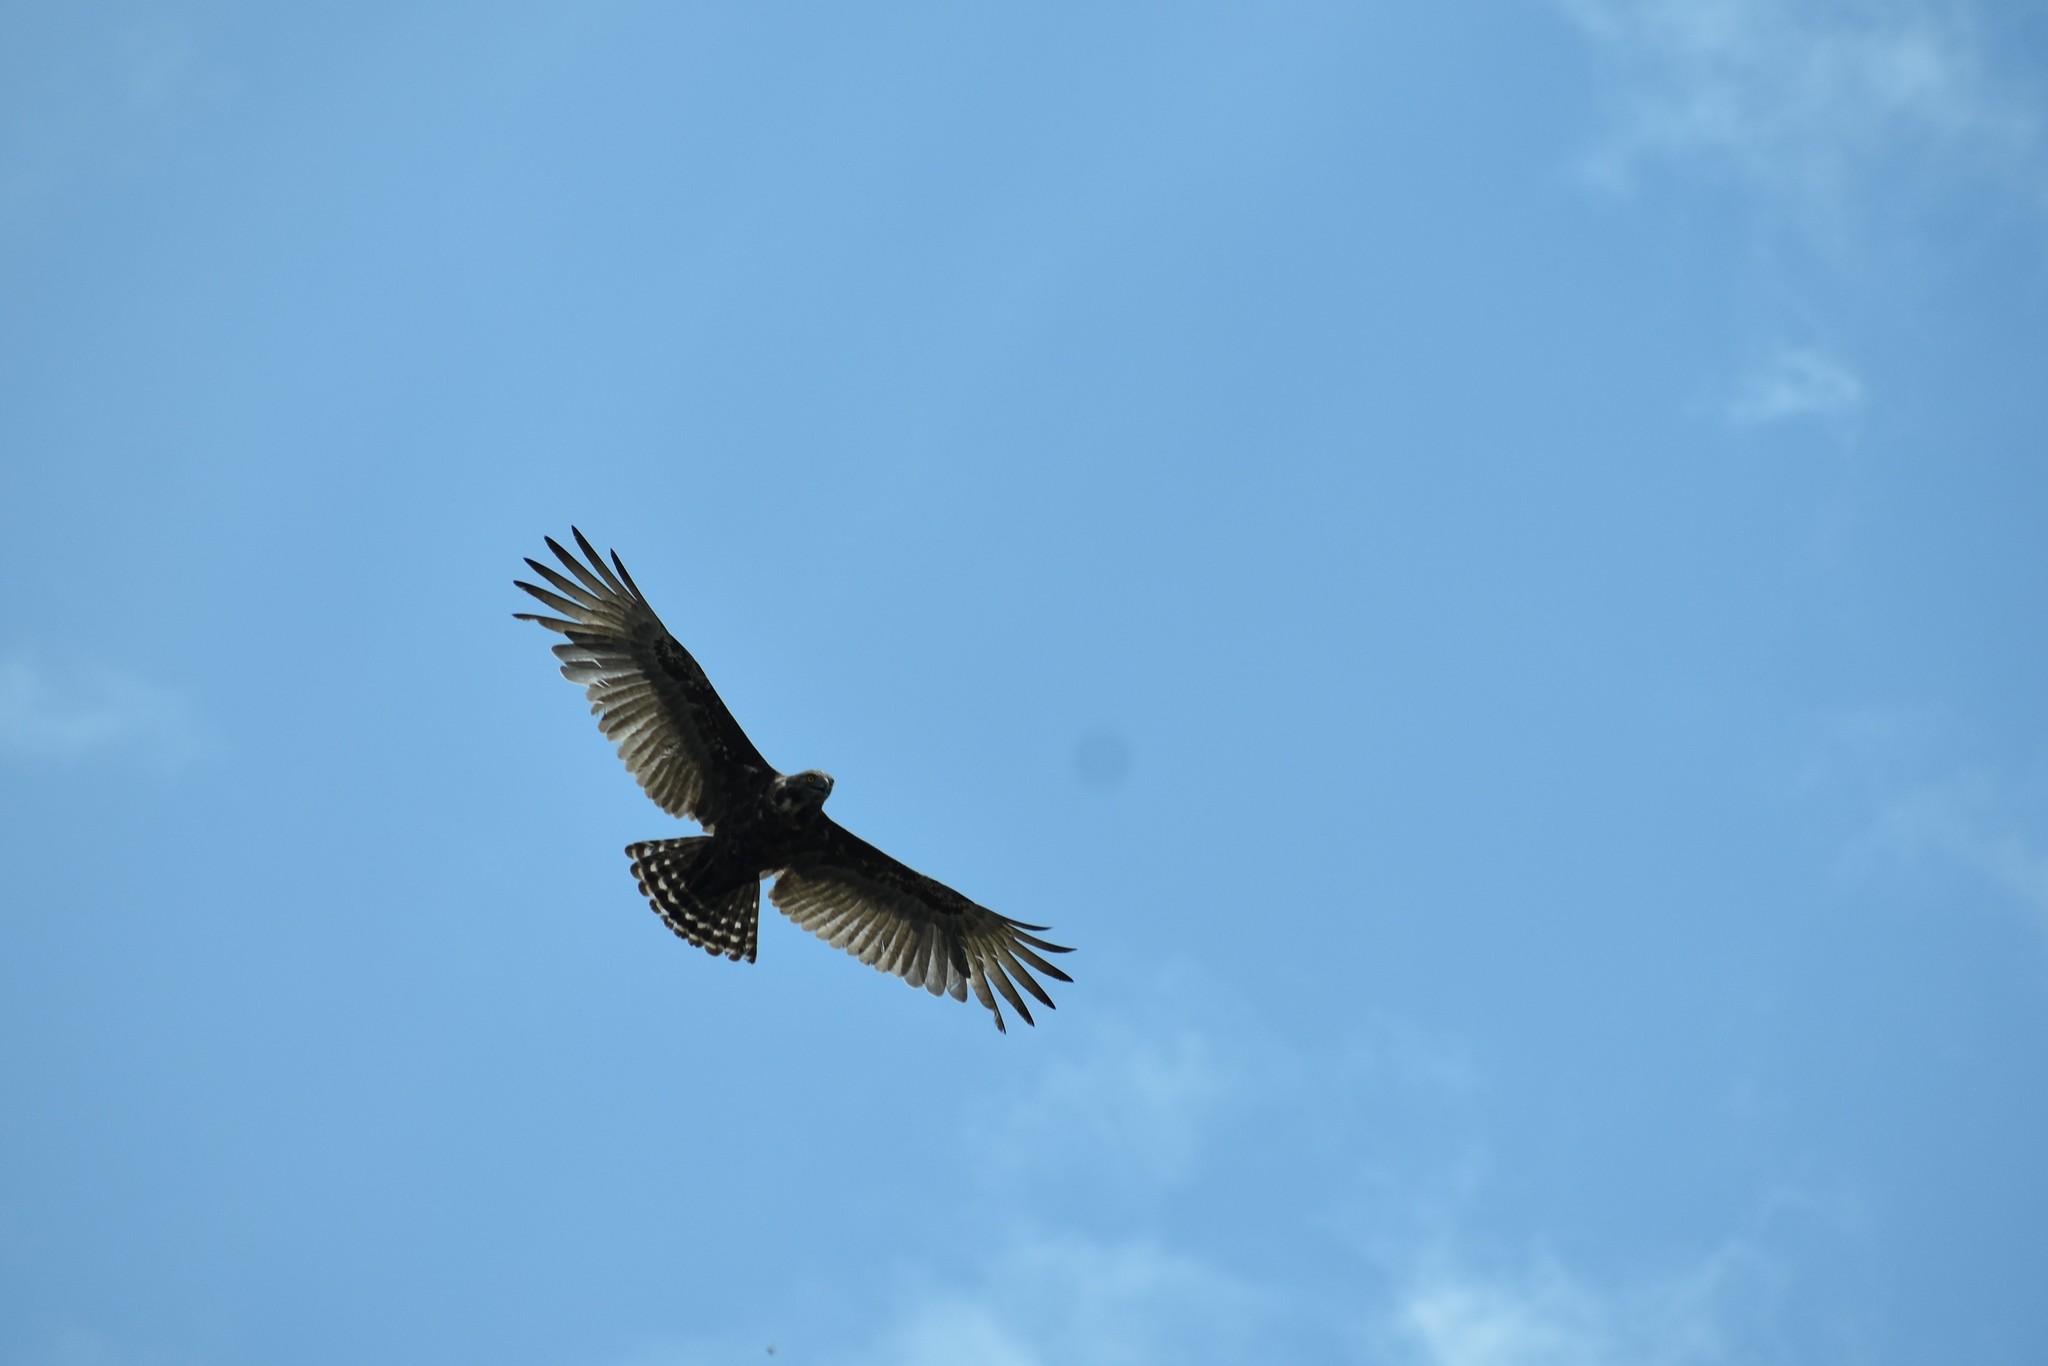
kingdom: Animalia
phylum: Chordata
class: Aves
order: Accipitriformes
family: Accipitridae
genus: Circaetus
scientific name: Circaetus cinereus
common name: Brown snake eagle
